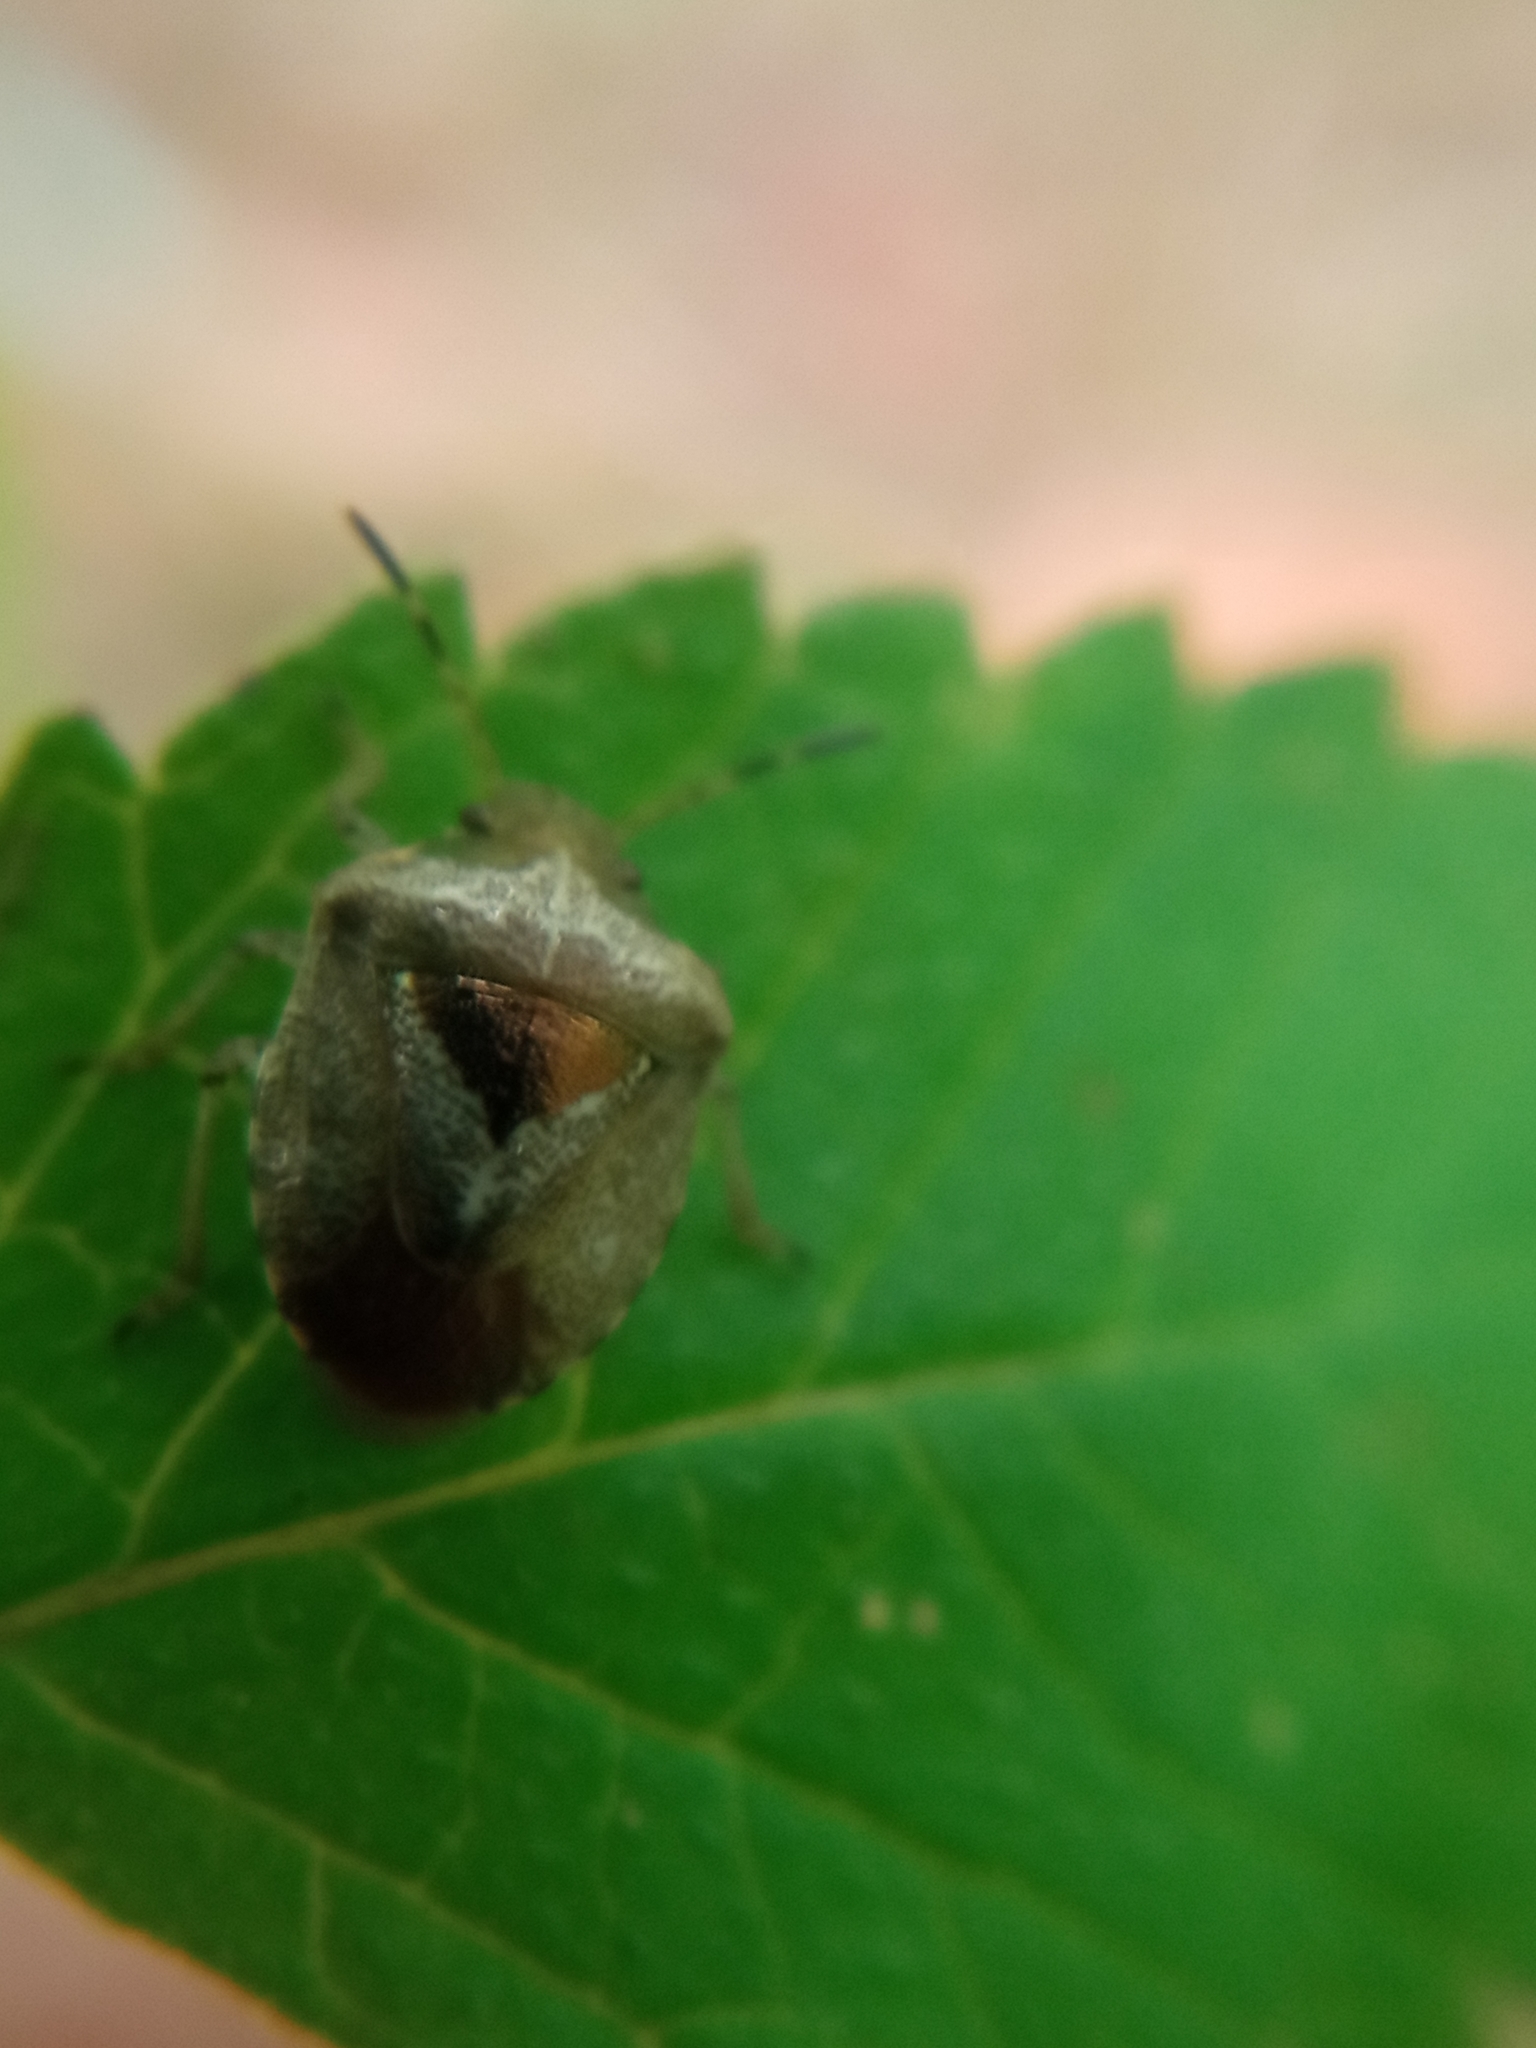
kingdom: Animalia
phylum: Arthropoda
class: Insecta
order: Hemiptera
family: Pentatomidae
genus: Eysarcoris
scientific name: Eysarcoris venustissimus
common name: Woundwort shieldbug
